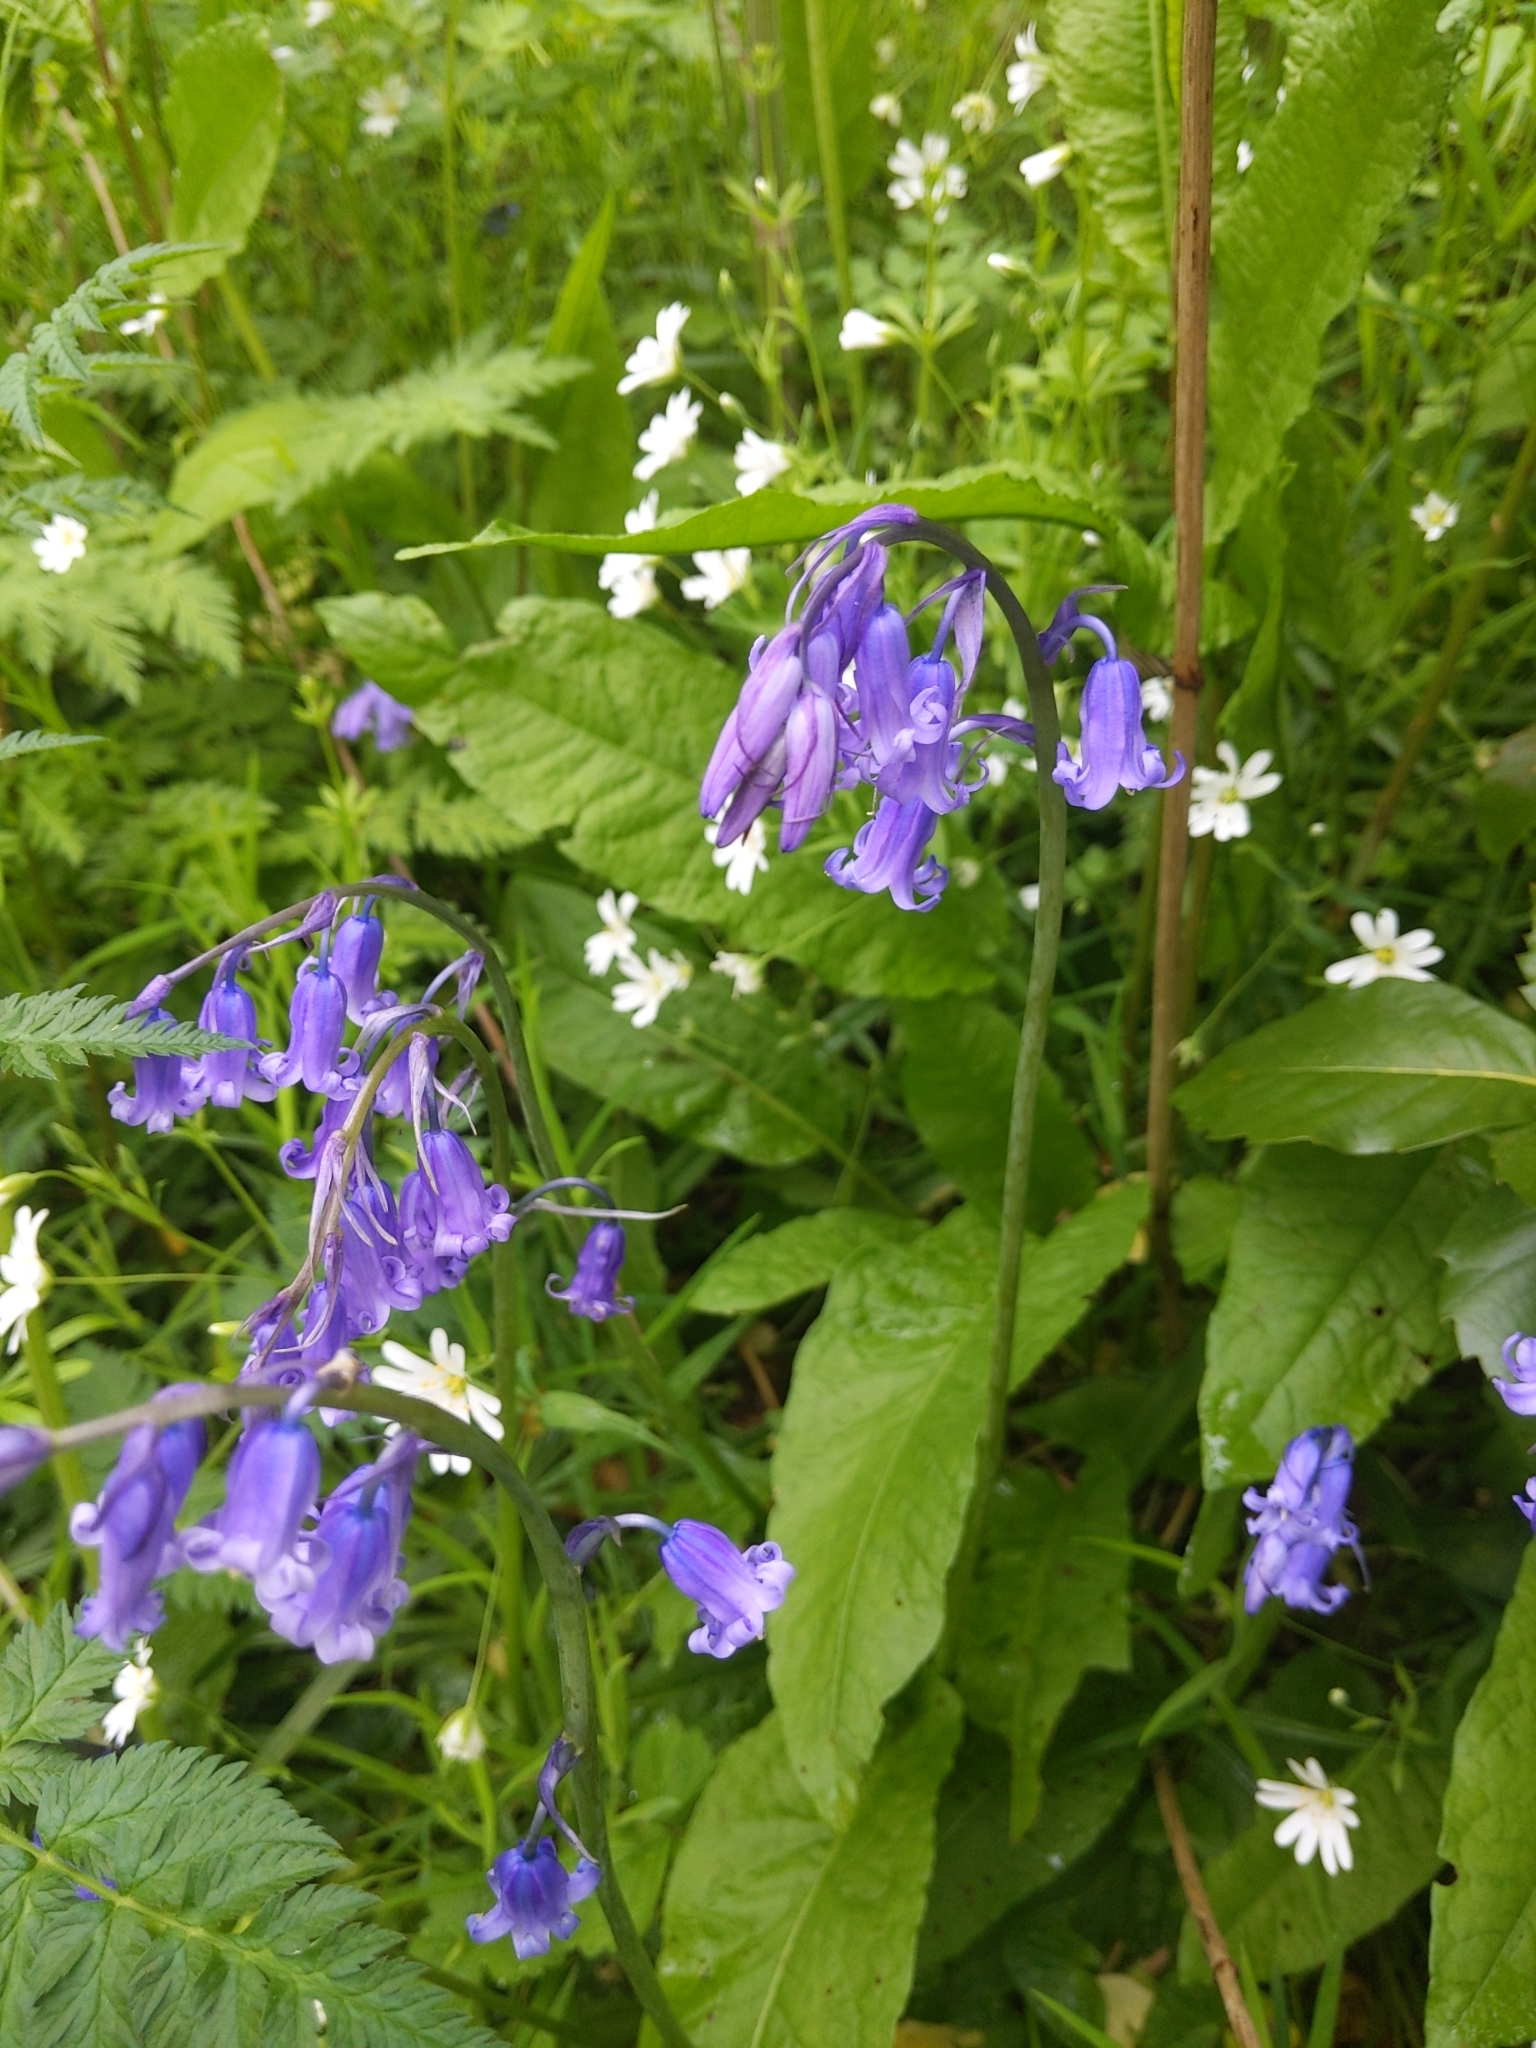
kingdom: Plantae
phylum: Tracheophyta
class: Liliopsida
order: Asparagales
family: Asparagaceae
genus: Hyacinthoides
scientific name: Hyacinthoides non-scripta
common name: Bluebell
